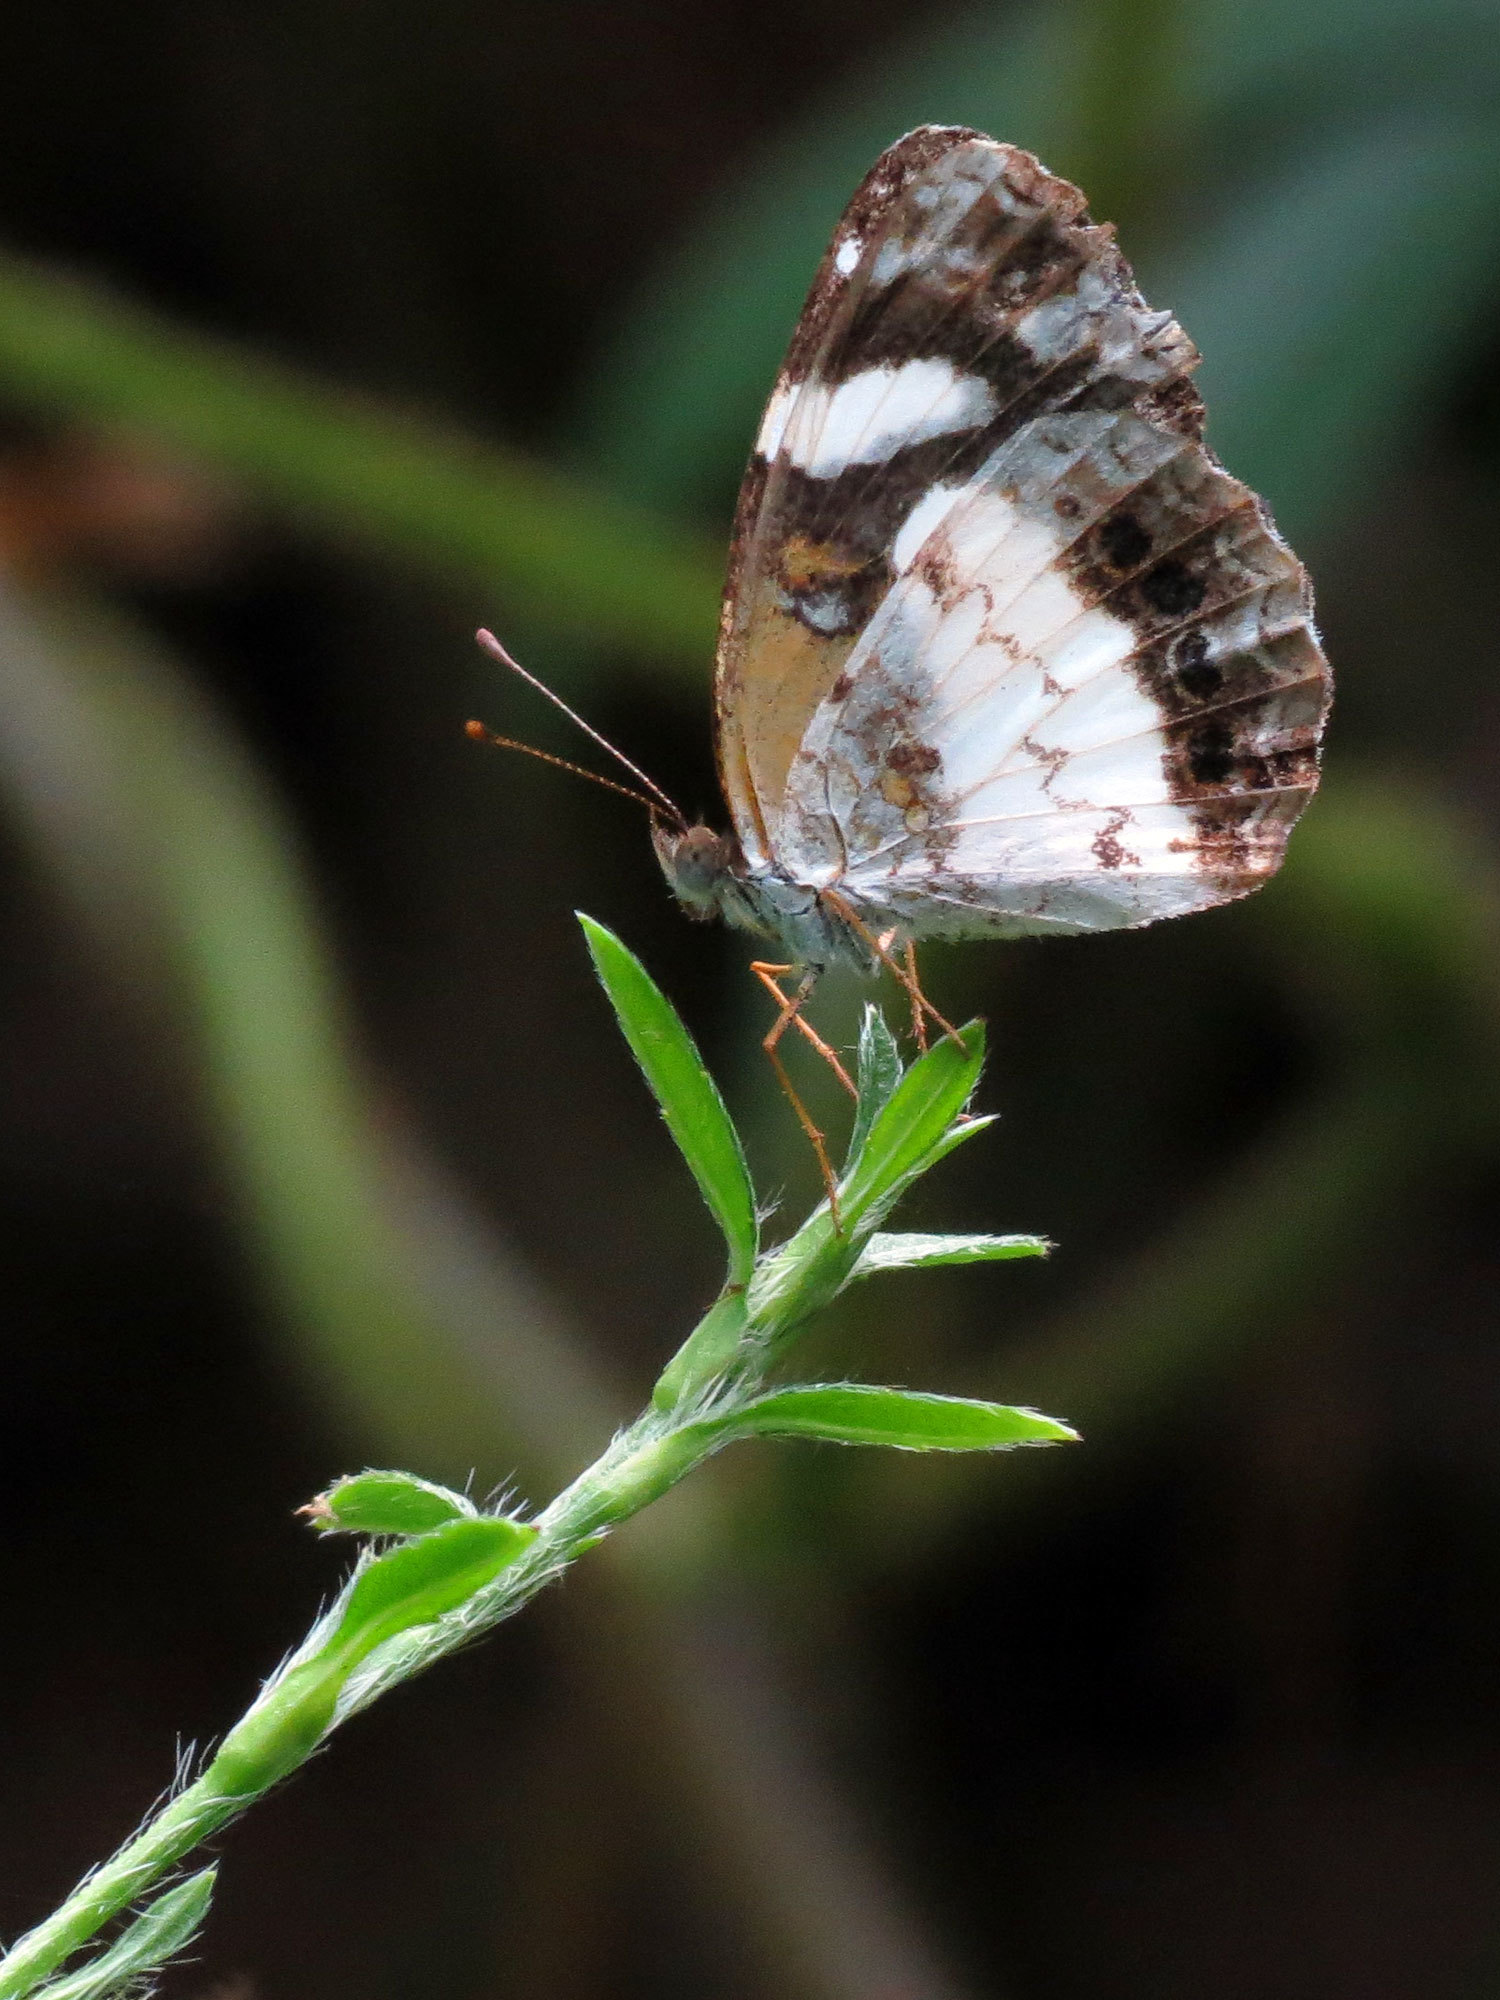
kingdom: Animalia
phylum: Arthropoda
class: Insecta
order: Lepidoptera
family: Nymphalidae
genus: Janatella
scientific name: Janatella leucodesma
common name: Whitened crescent
